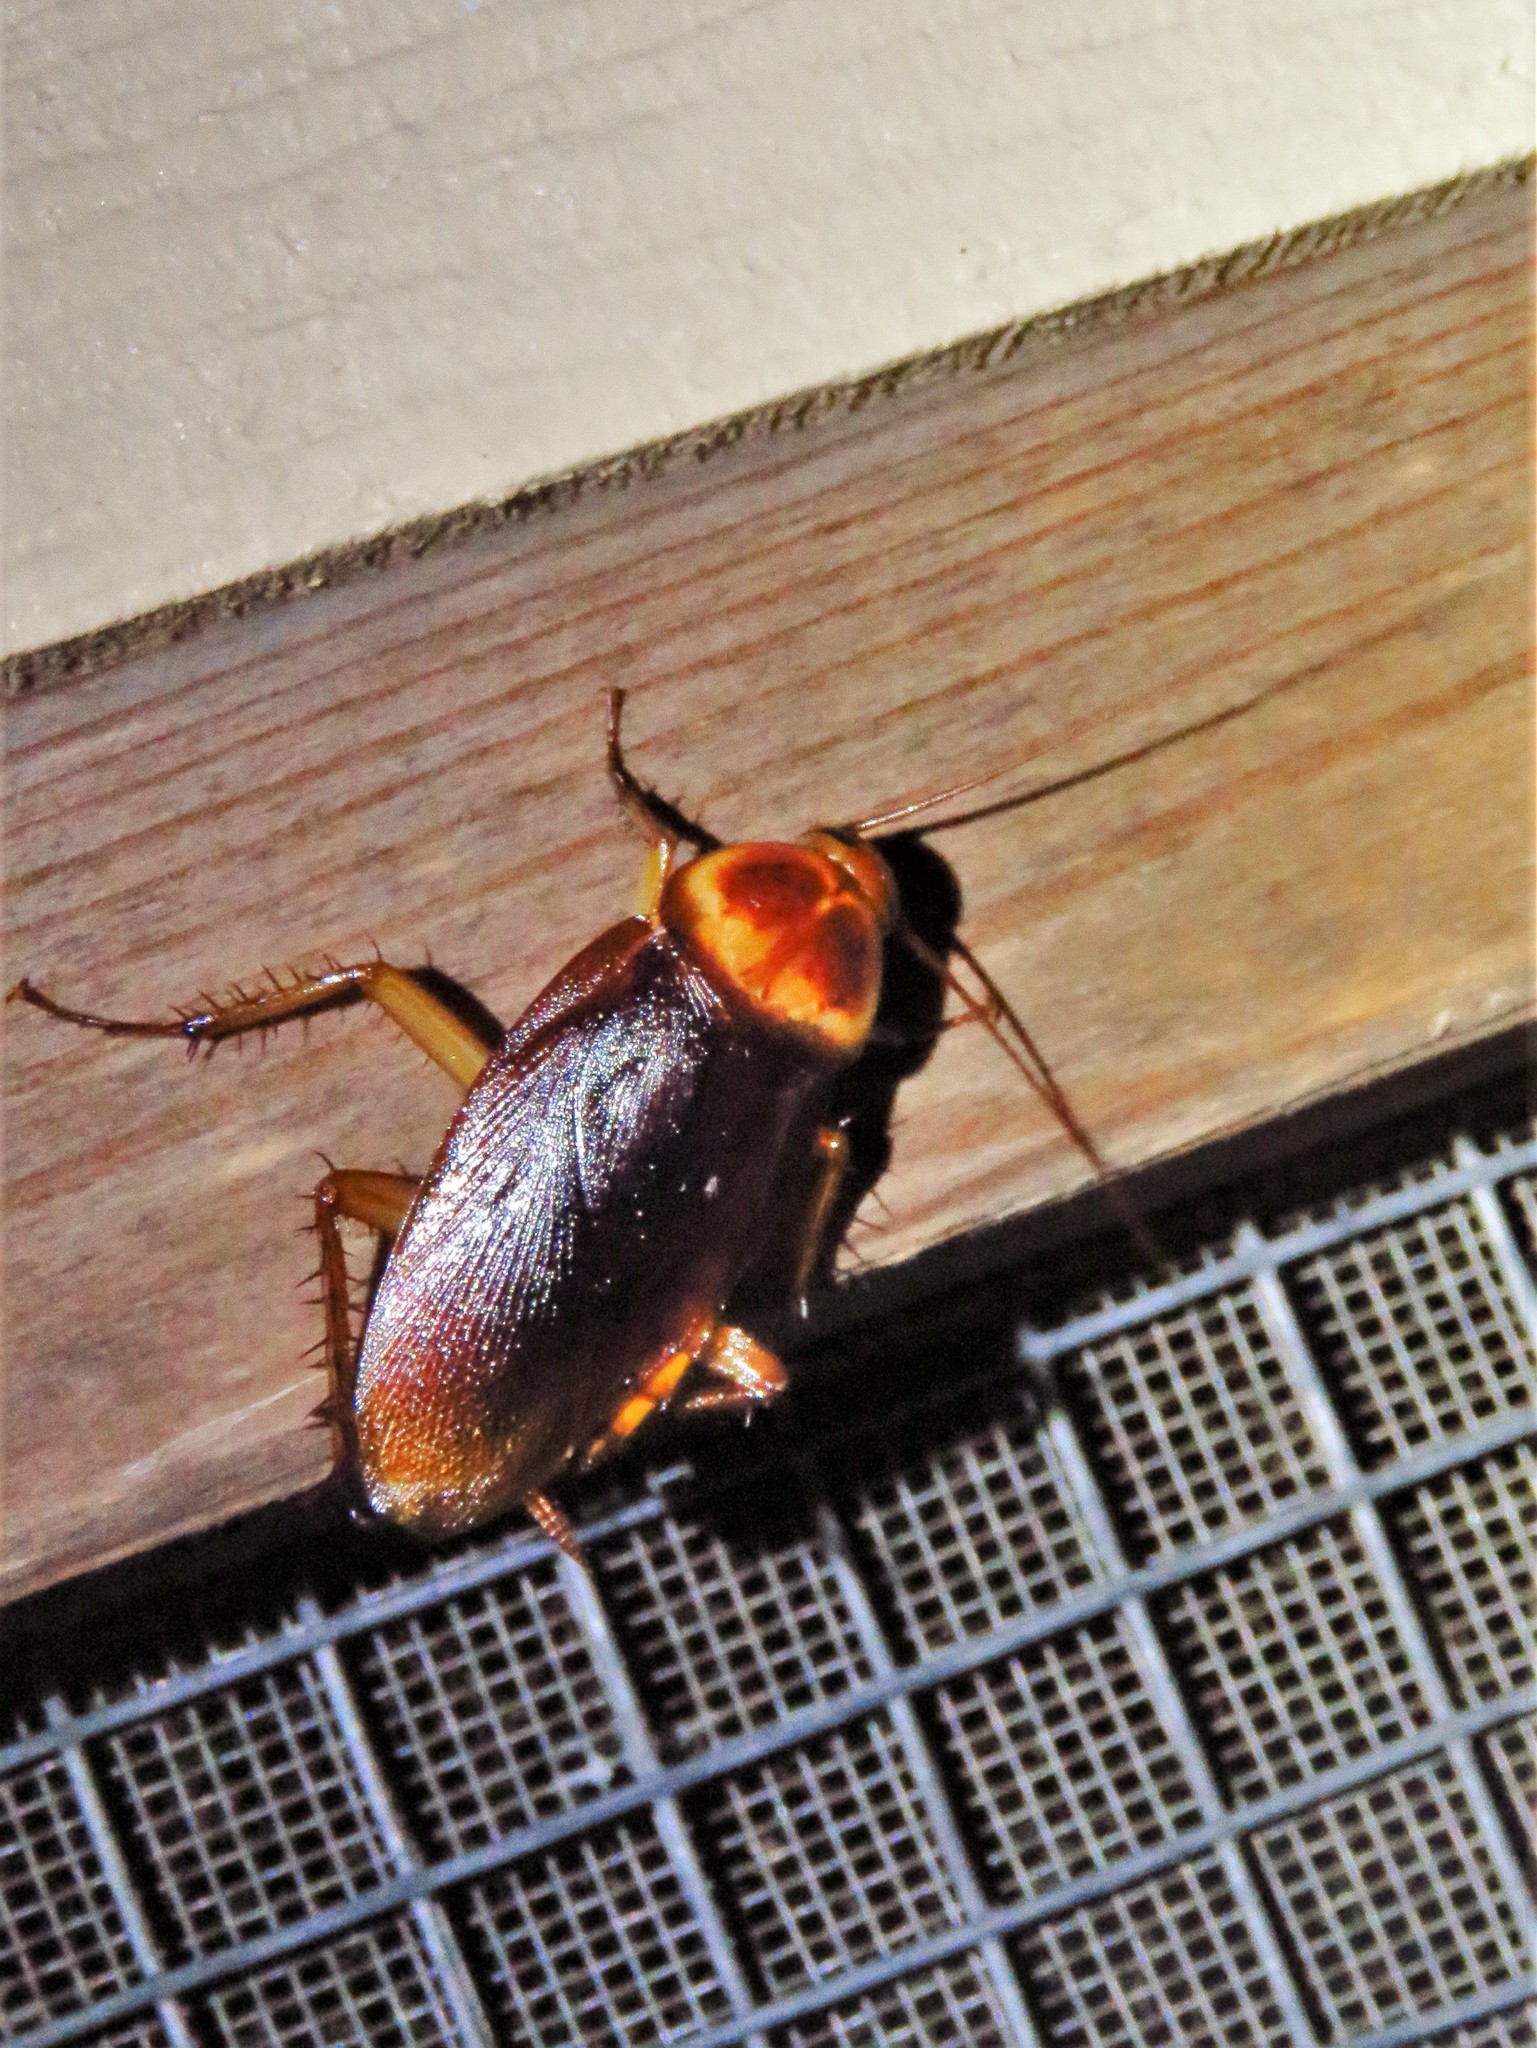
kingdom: Animalia
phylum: Arthropoda
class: Insecta
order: Blattodea
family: Blattidae
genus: Periplaneta
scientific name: Periplaneta americana
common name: American cockroach
